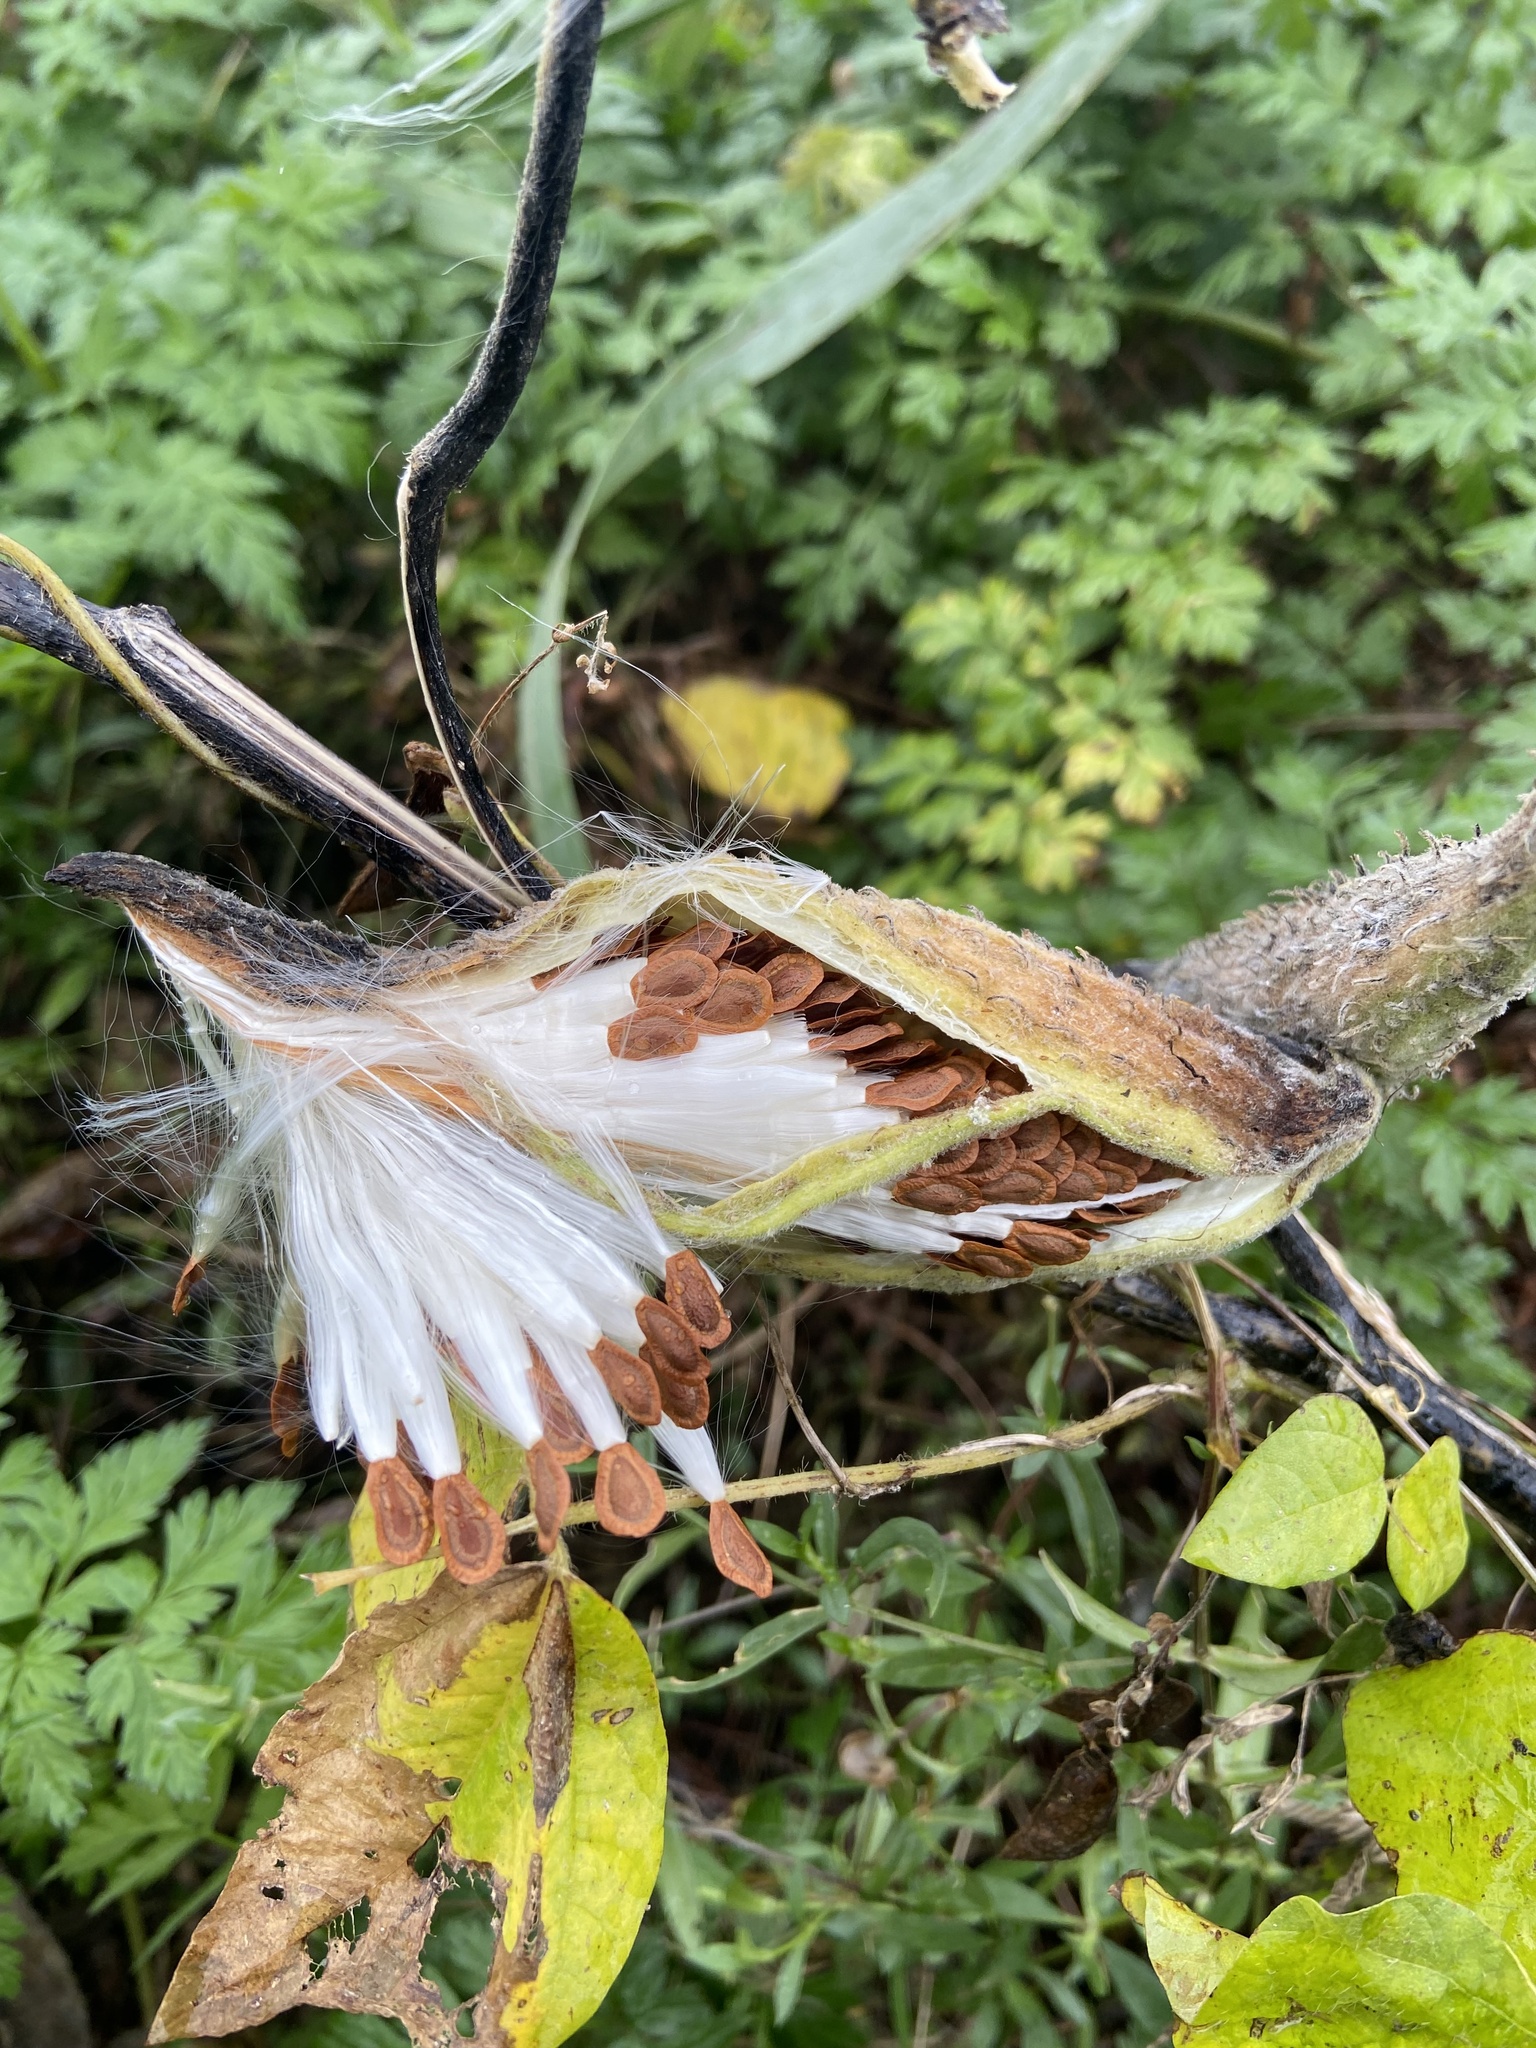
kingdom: Plantae
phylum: Tracheophyta
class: Magnoliopsida
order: Gentianales
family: Apocynaceae
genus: Asclepias
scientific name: Asclepias syriaca
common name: Common milkweed
